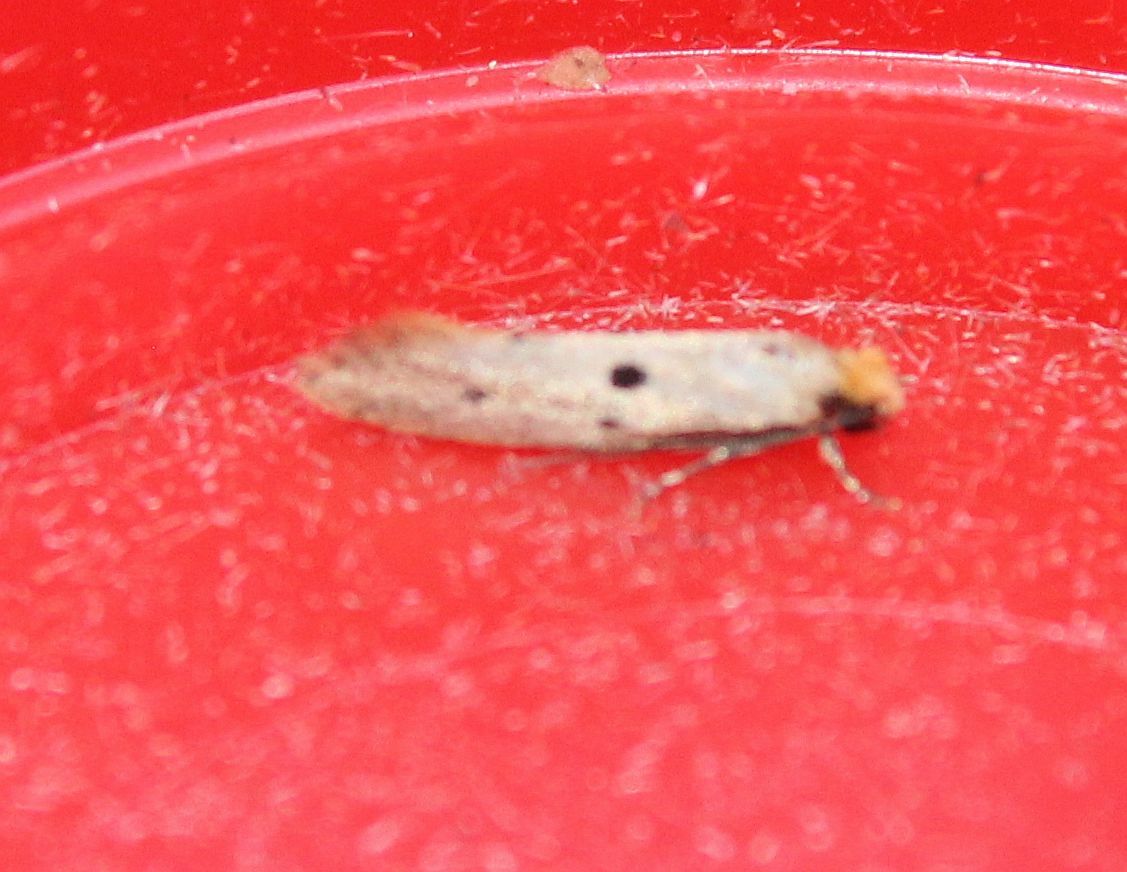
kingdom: Animalia
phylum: Arthropoda
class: Insecta
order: Lepidoptera
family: Tineidae
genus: Tinea
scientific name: Tinea trinotella
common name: Bird's-nest moth
